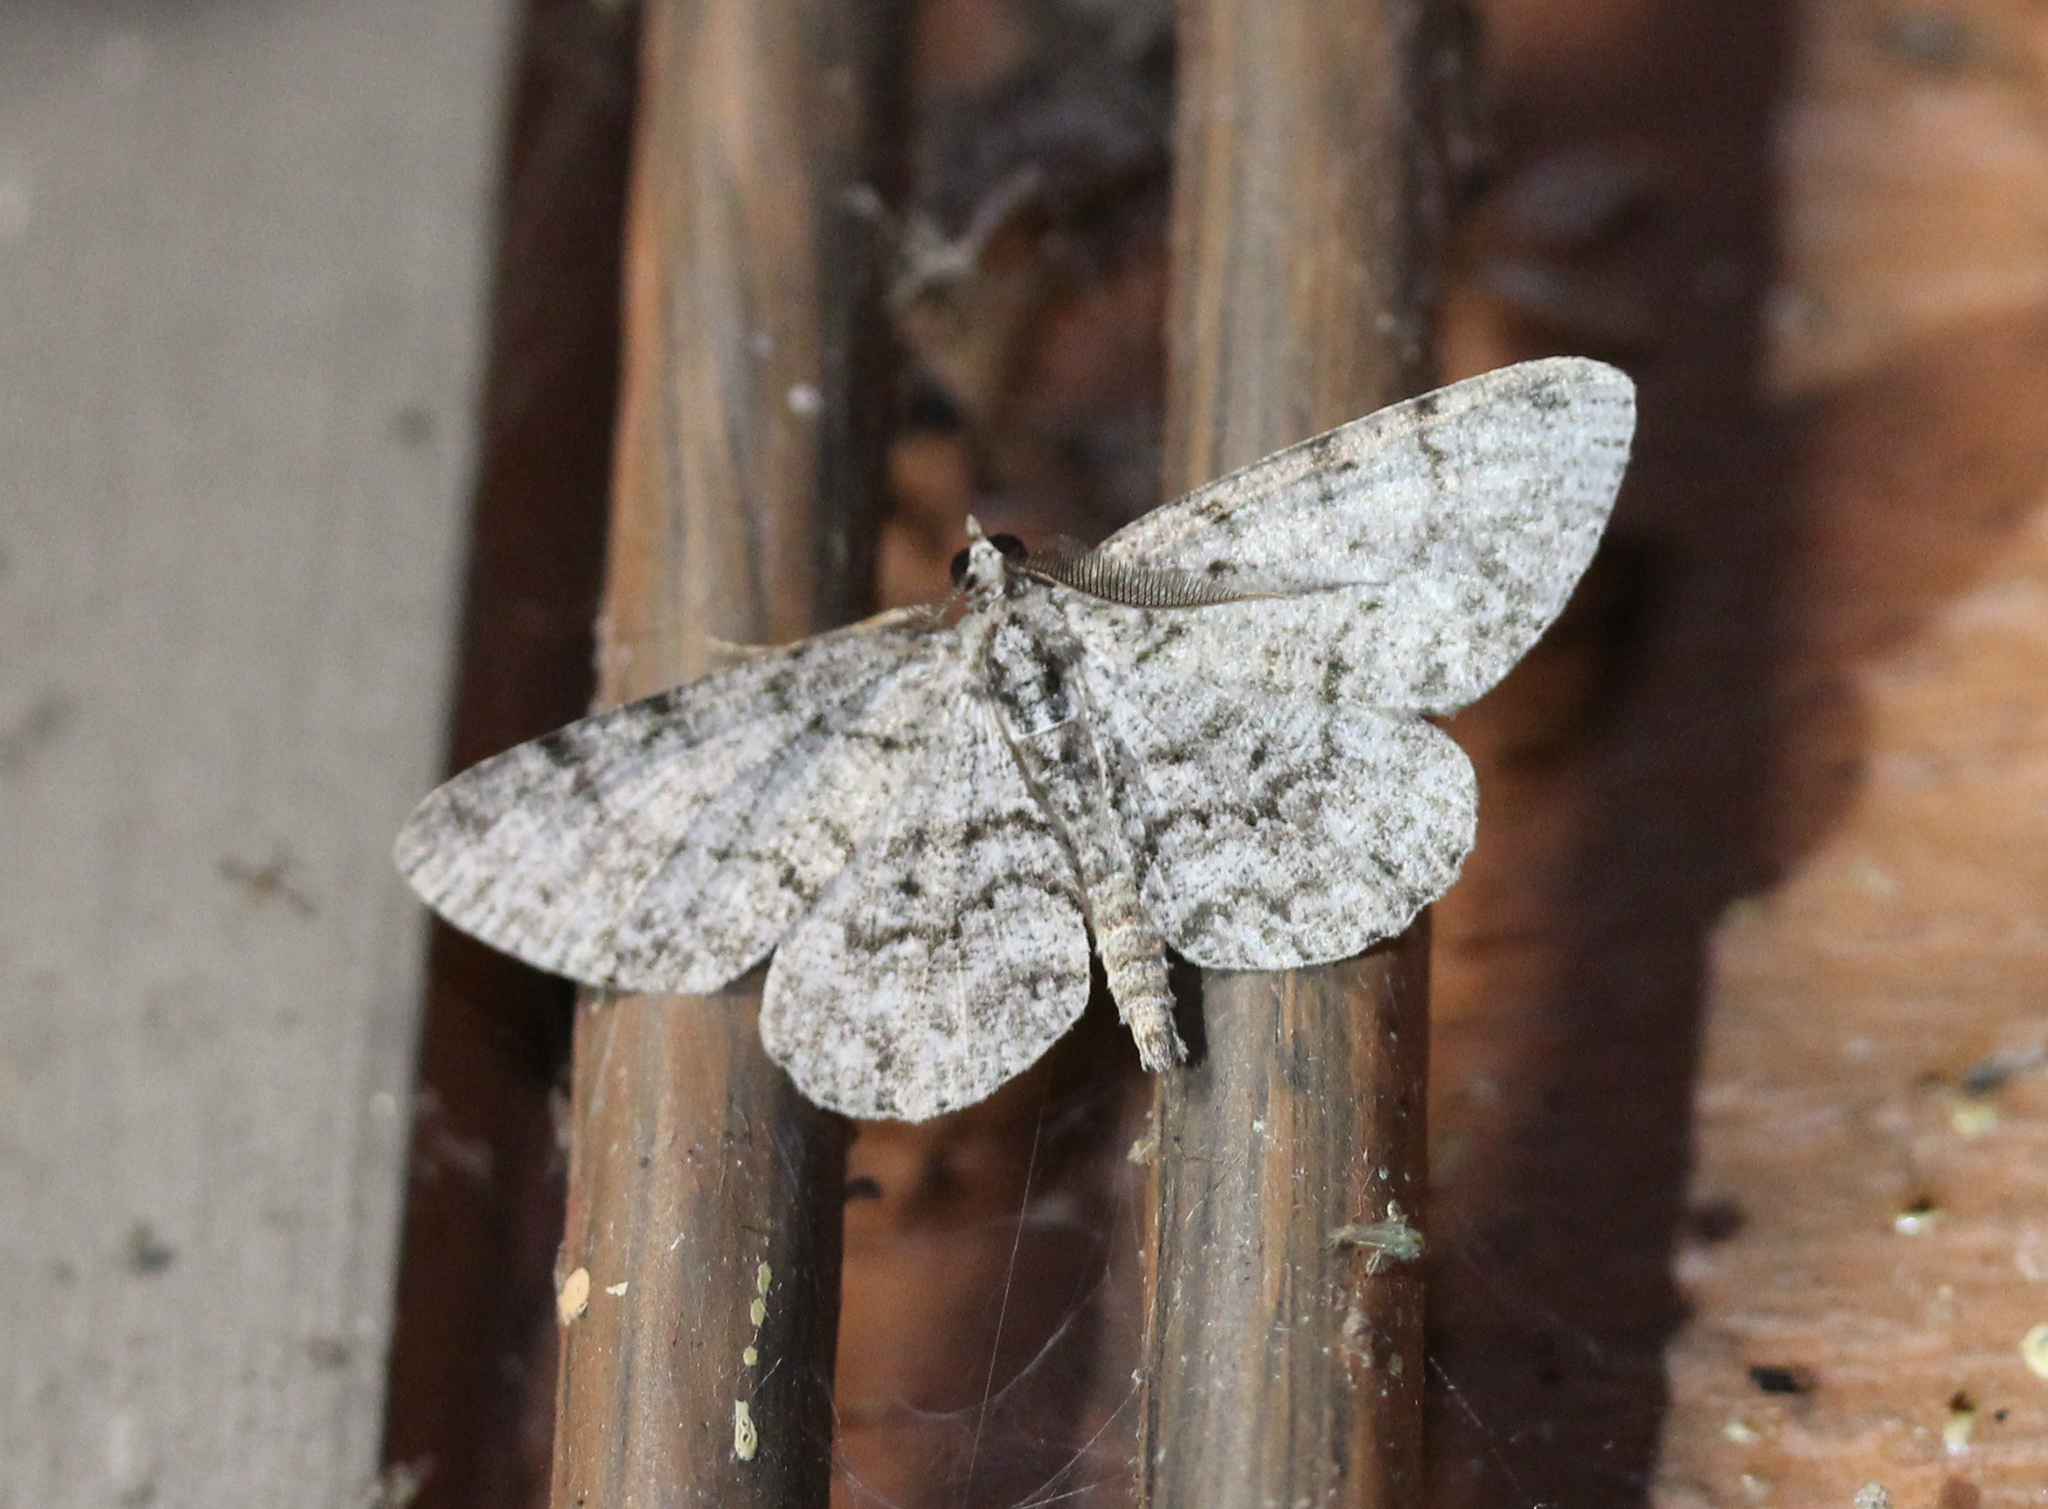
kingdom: Animalia
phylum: Arthropoda
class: Insecta
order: Lepidoptera
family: Geometridae
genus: Protoboarmia
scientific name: Protoboarmia porcelaria
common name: Porcelain gray
